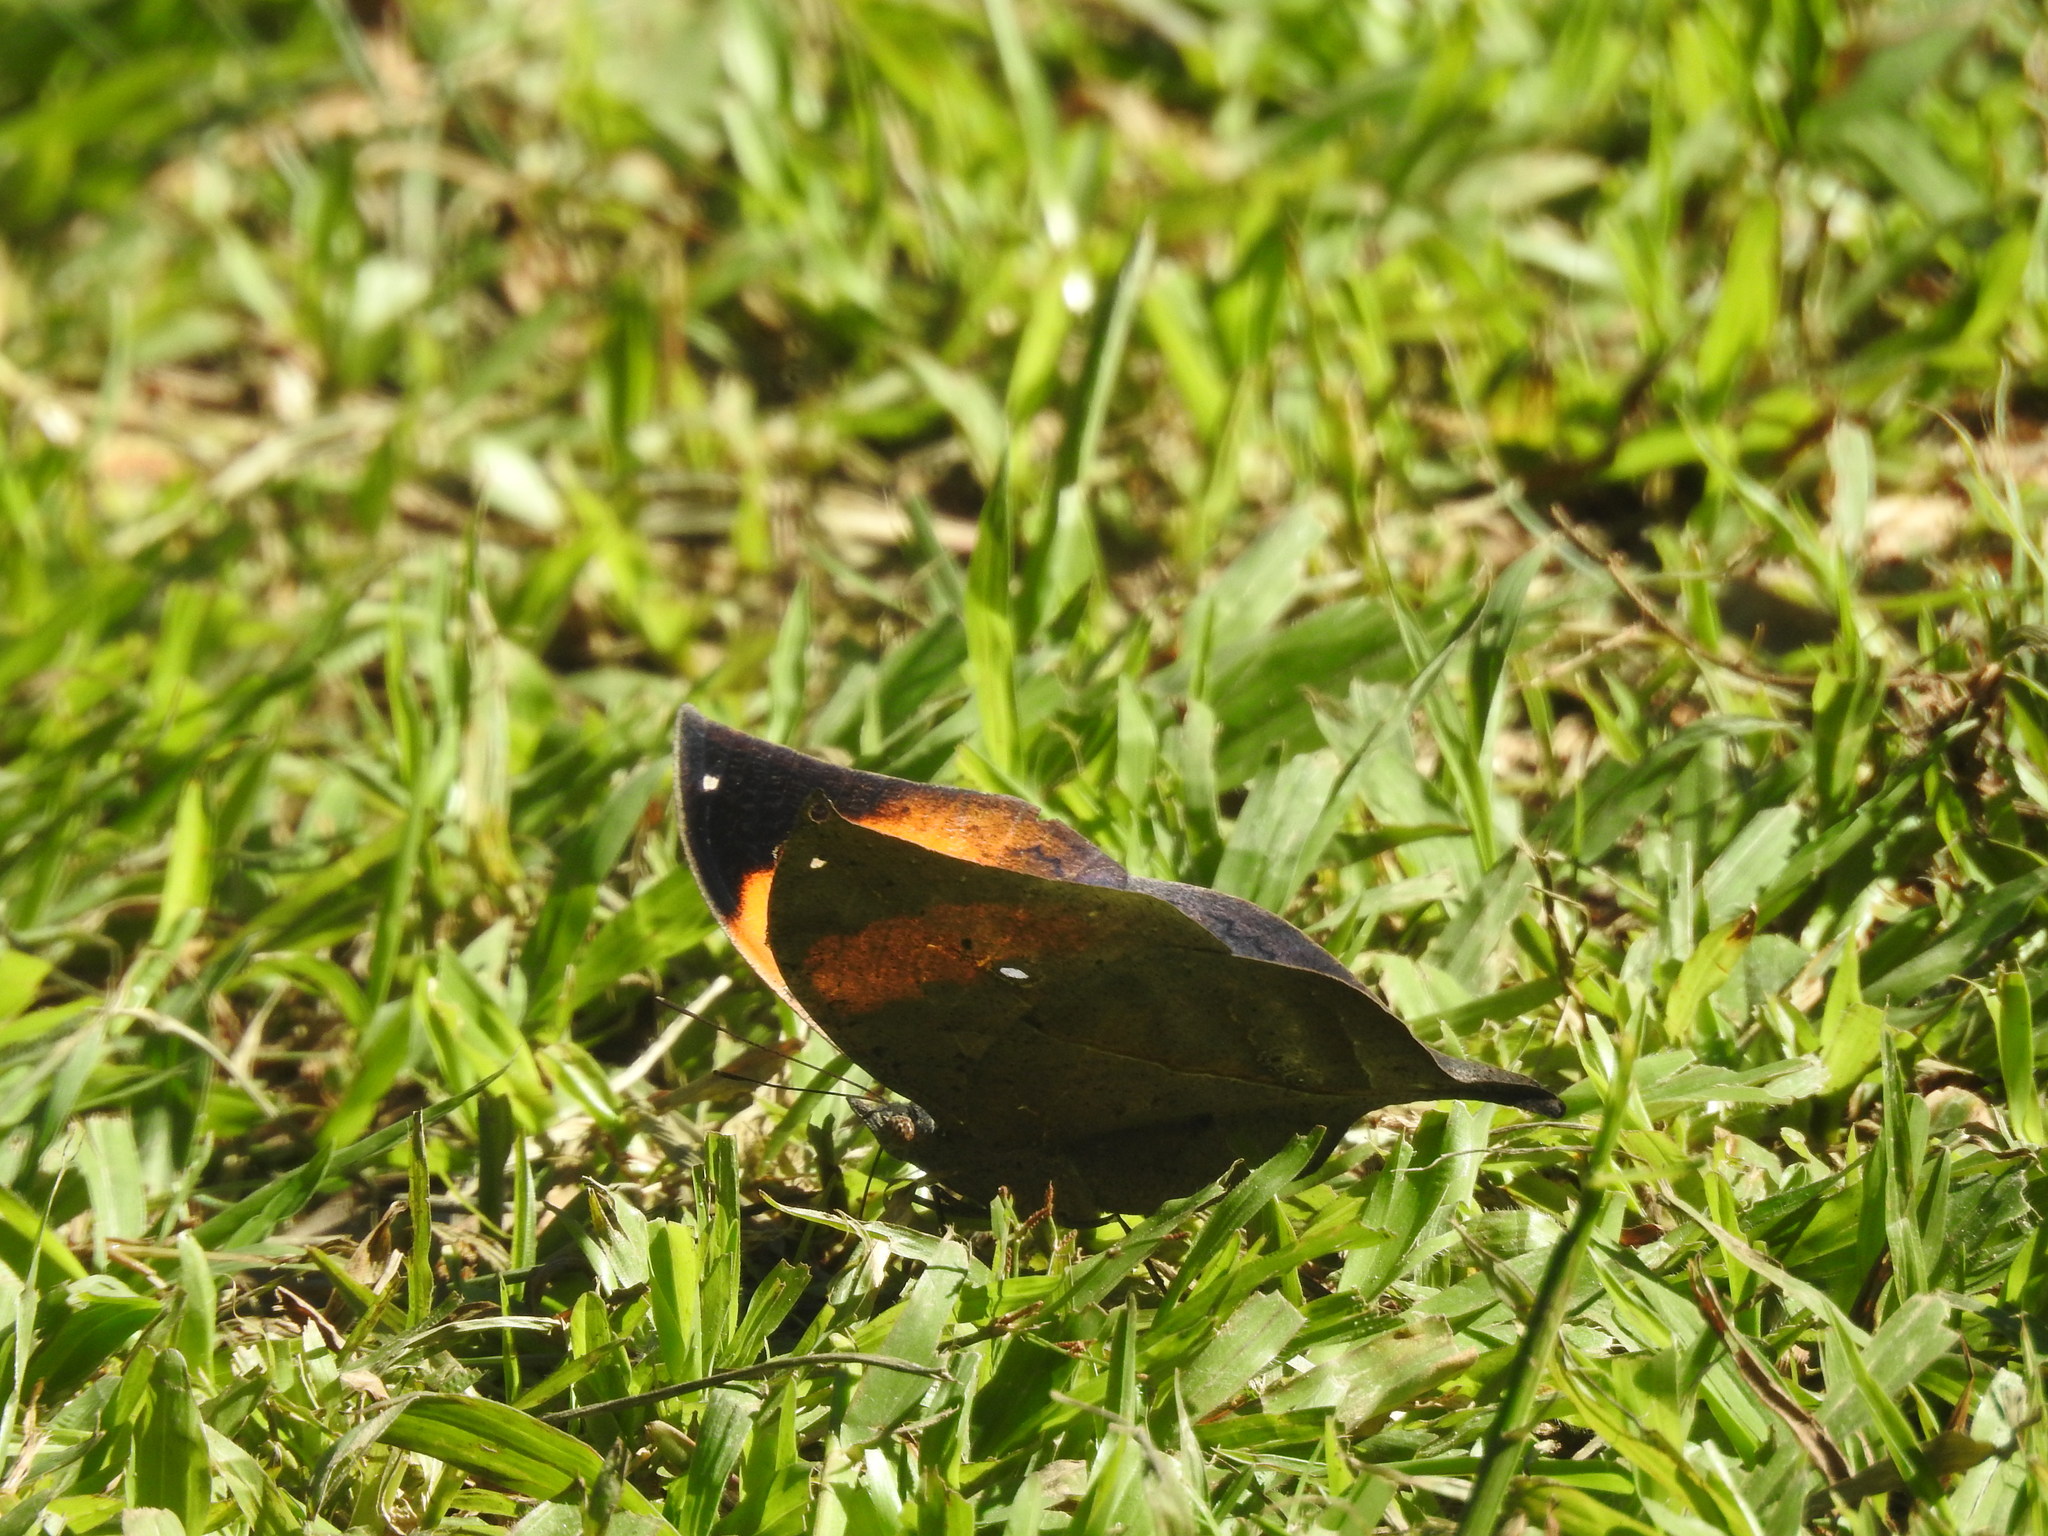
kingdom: Animalia
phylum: Arthropoda
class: Insecta
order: Lepidoptera
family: Nymphalidae
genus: Kallima
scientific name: Kallima inachus
